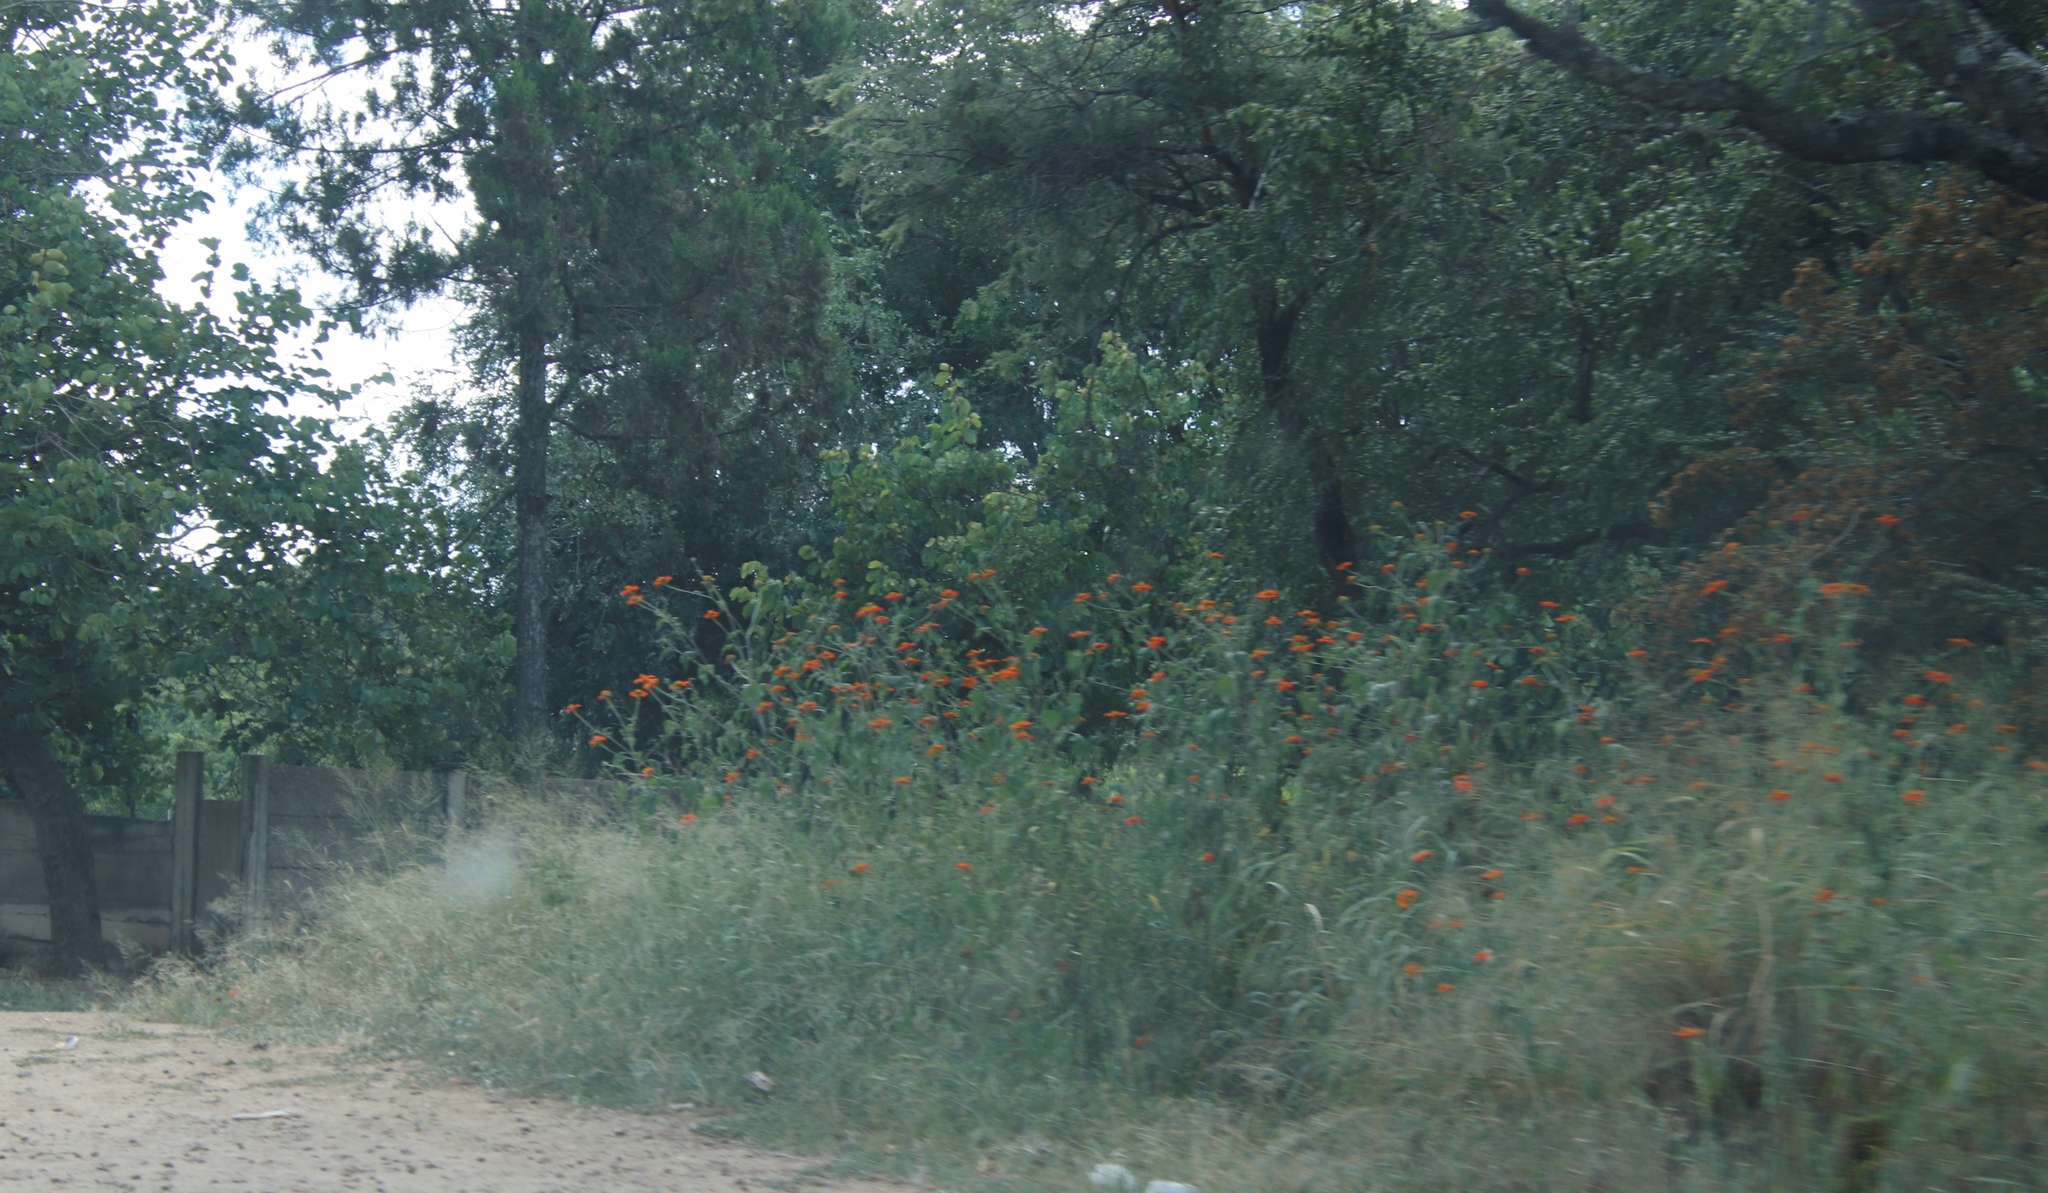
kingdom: Plantae
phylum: Tracheophyta
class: Magnoliopsida
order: Asterales
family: Asteraceae
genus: Tithonia
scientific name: Tithonia rotundifolia
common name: Sunflower
